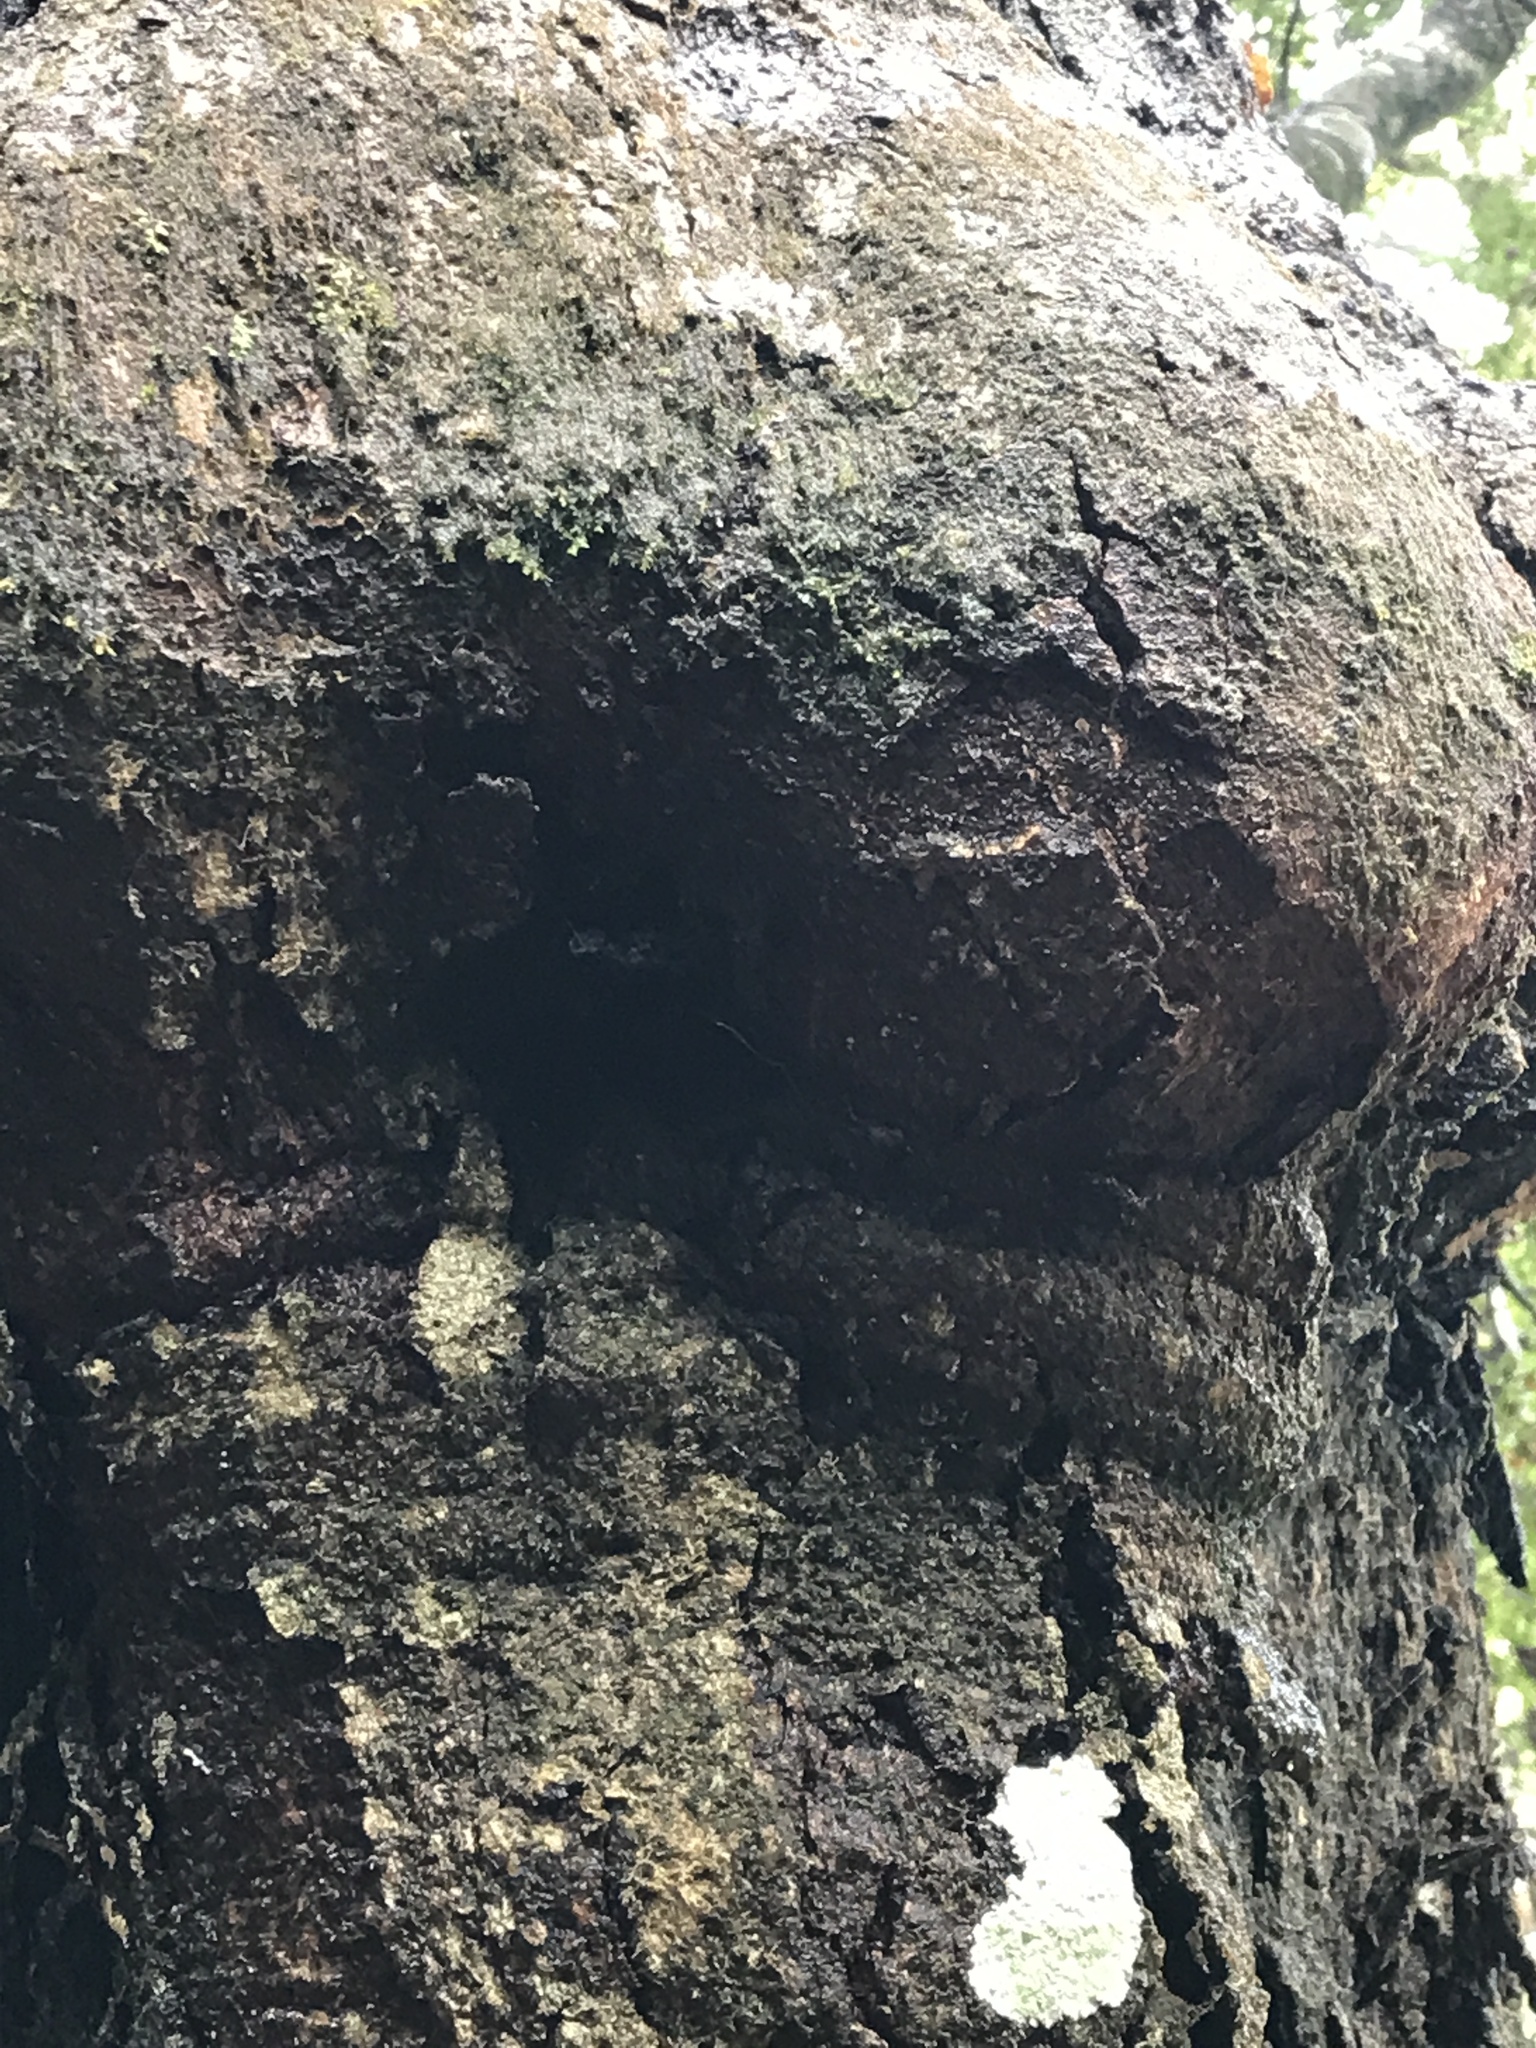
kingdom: Plantae
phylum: Tracheophyta
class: Magnoliopsida
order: Fagales
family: Nothofagaceae
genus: Nothofagus
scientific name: Nothofagus menziesii
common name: Silver beech
